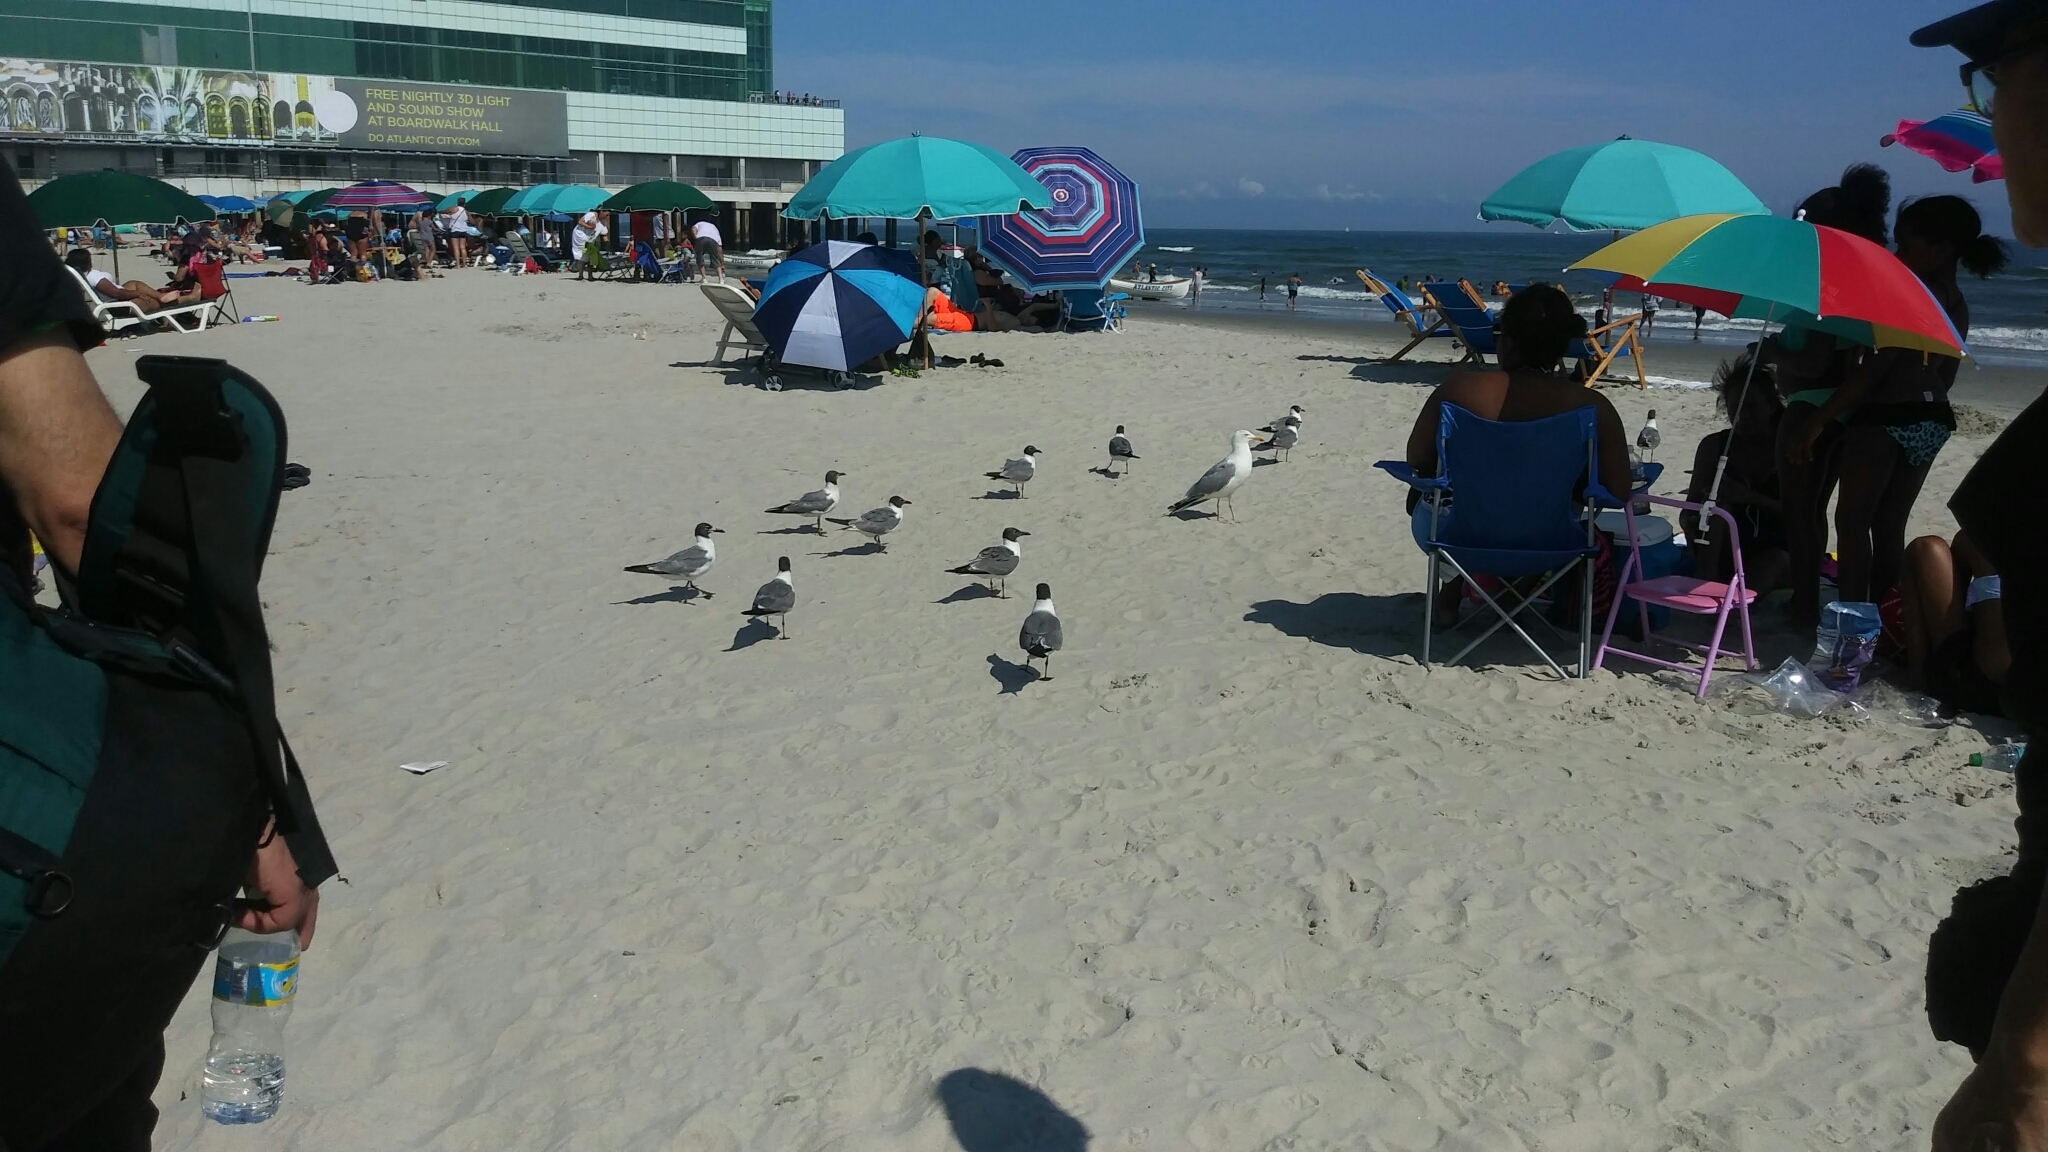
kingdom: Animalia
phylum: Chordata
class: Aves
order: Charadriiformes
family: Laridae
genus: Leucophaeus
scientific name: Leucophaeus atricilla
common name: Laughing gull
